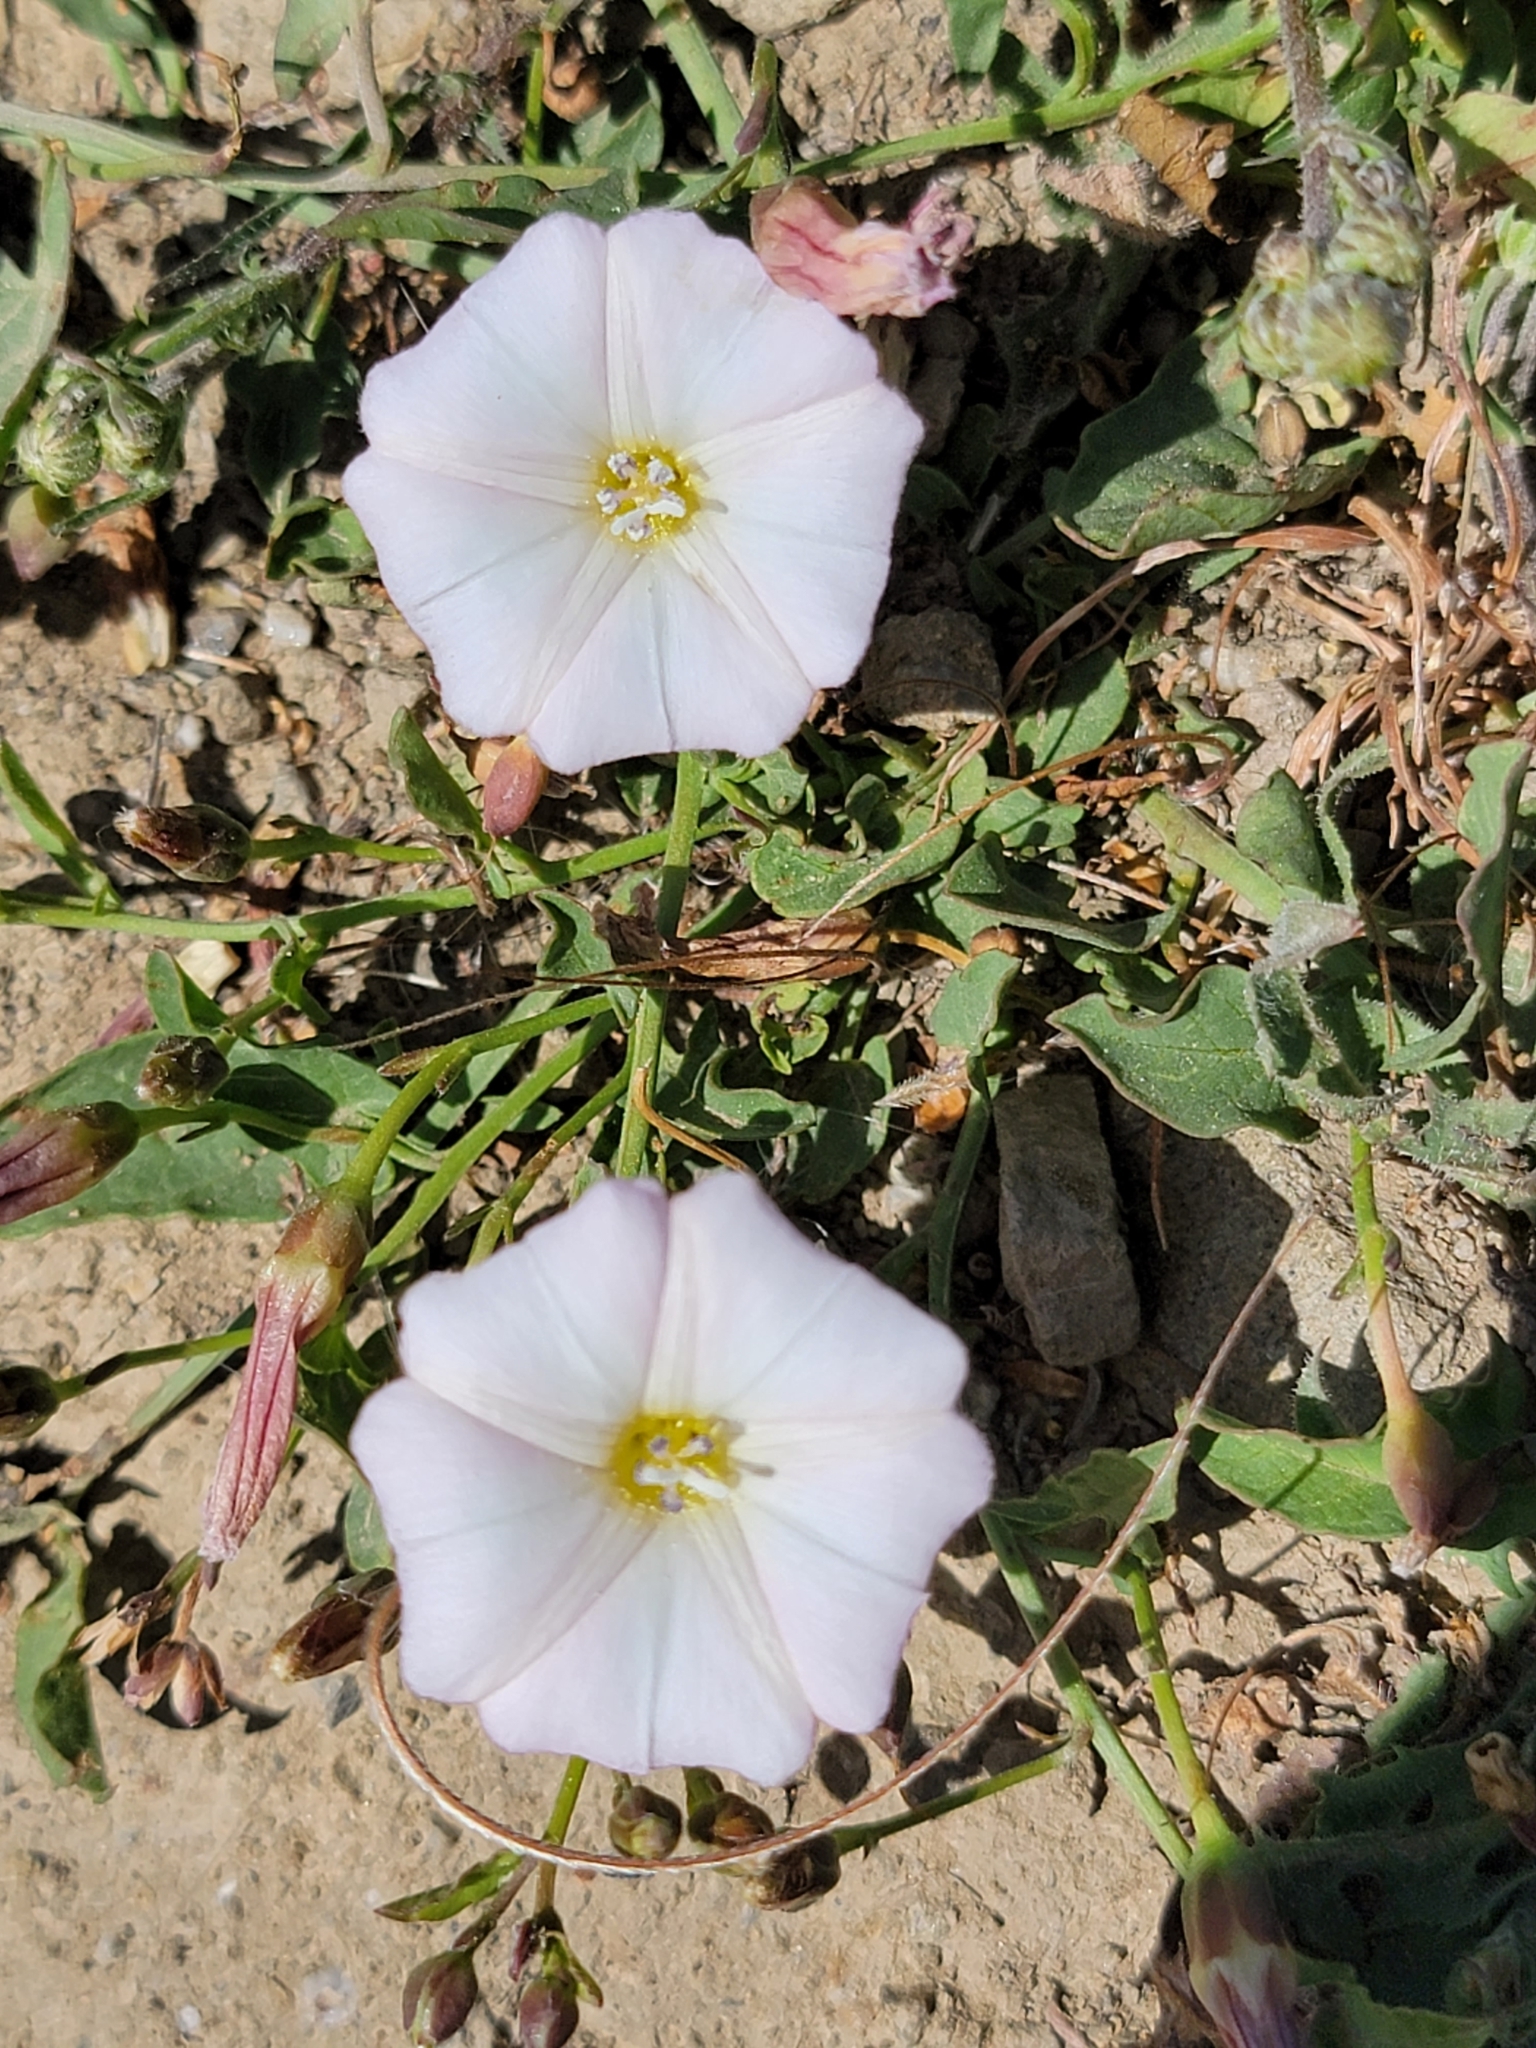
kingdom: Plantae
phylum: Tracheophyta
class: Magnoliopsida
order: Solanales
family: Convolvulaceae
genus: Convolvulus
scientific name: Convolvulus arvensis
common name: Field bindweed
